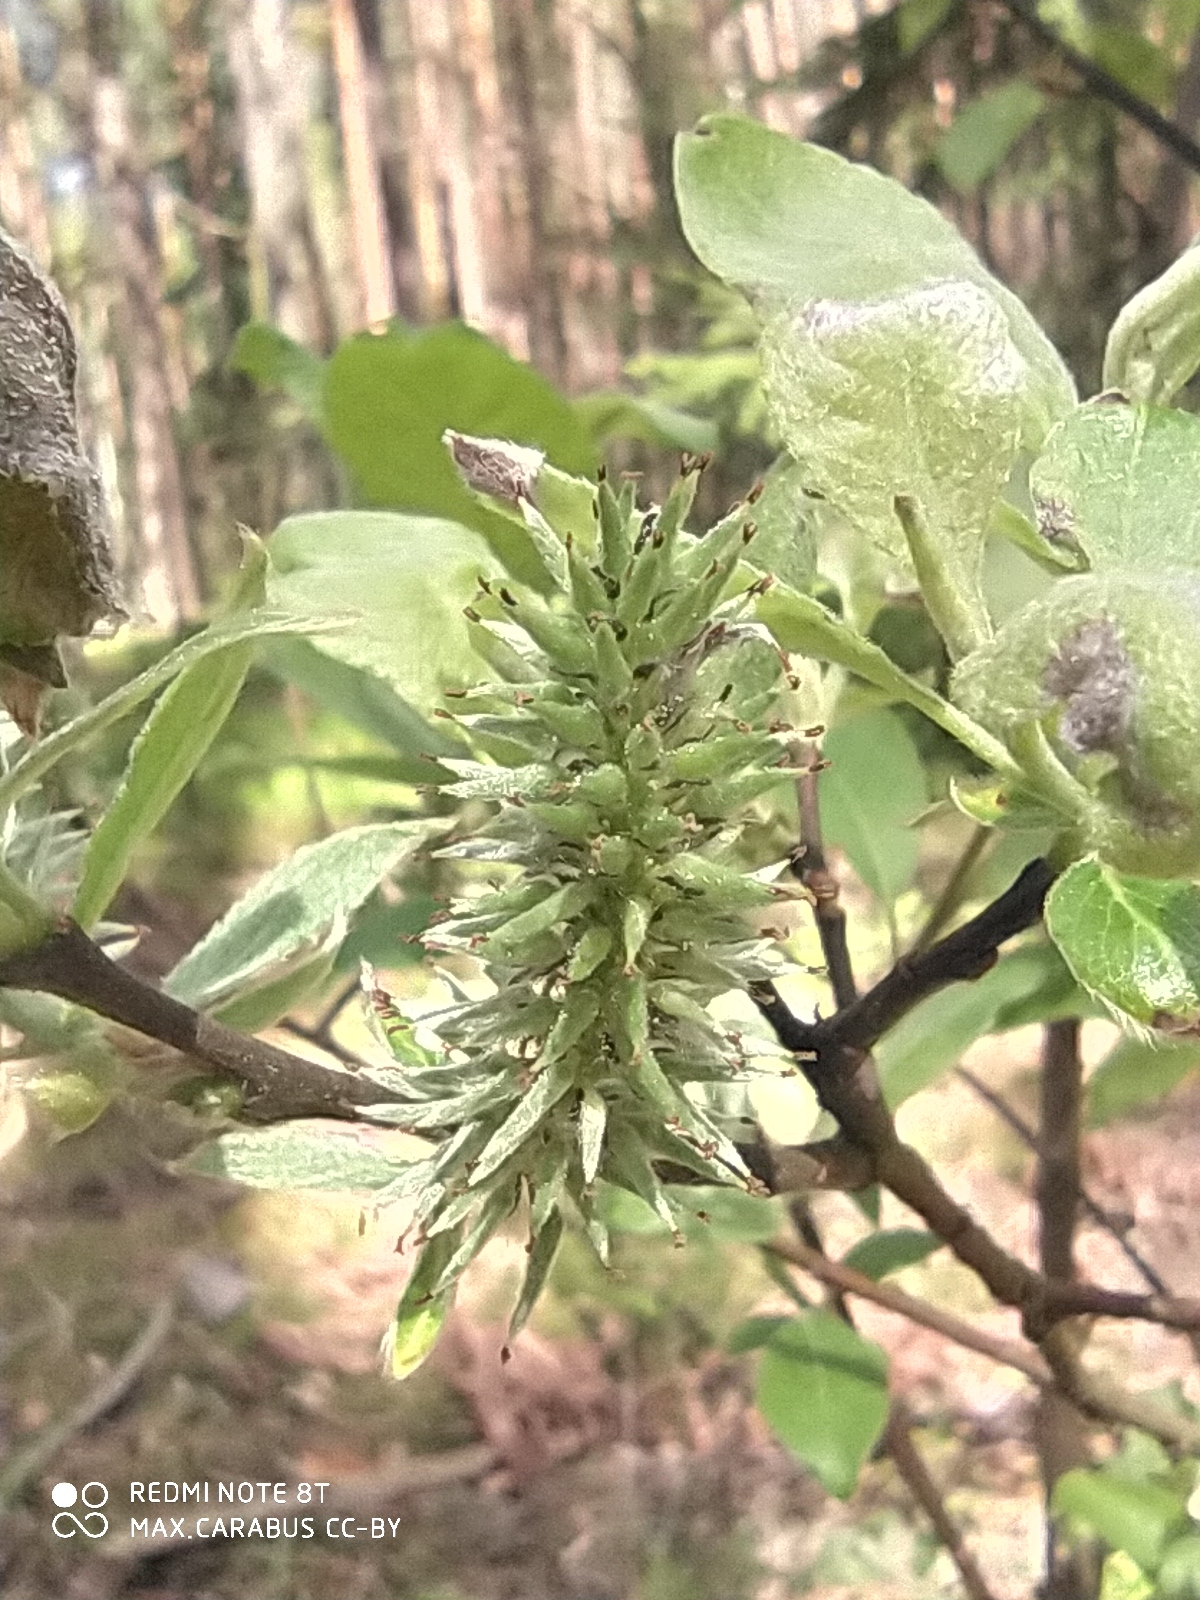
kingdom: Plantae
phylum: Tracheophyta
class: Magnoliopsida
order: Malpighiales
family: Salicaceae
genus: Salix
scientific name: Salix caprea
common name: Goat willow
